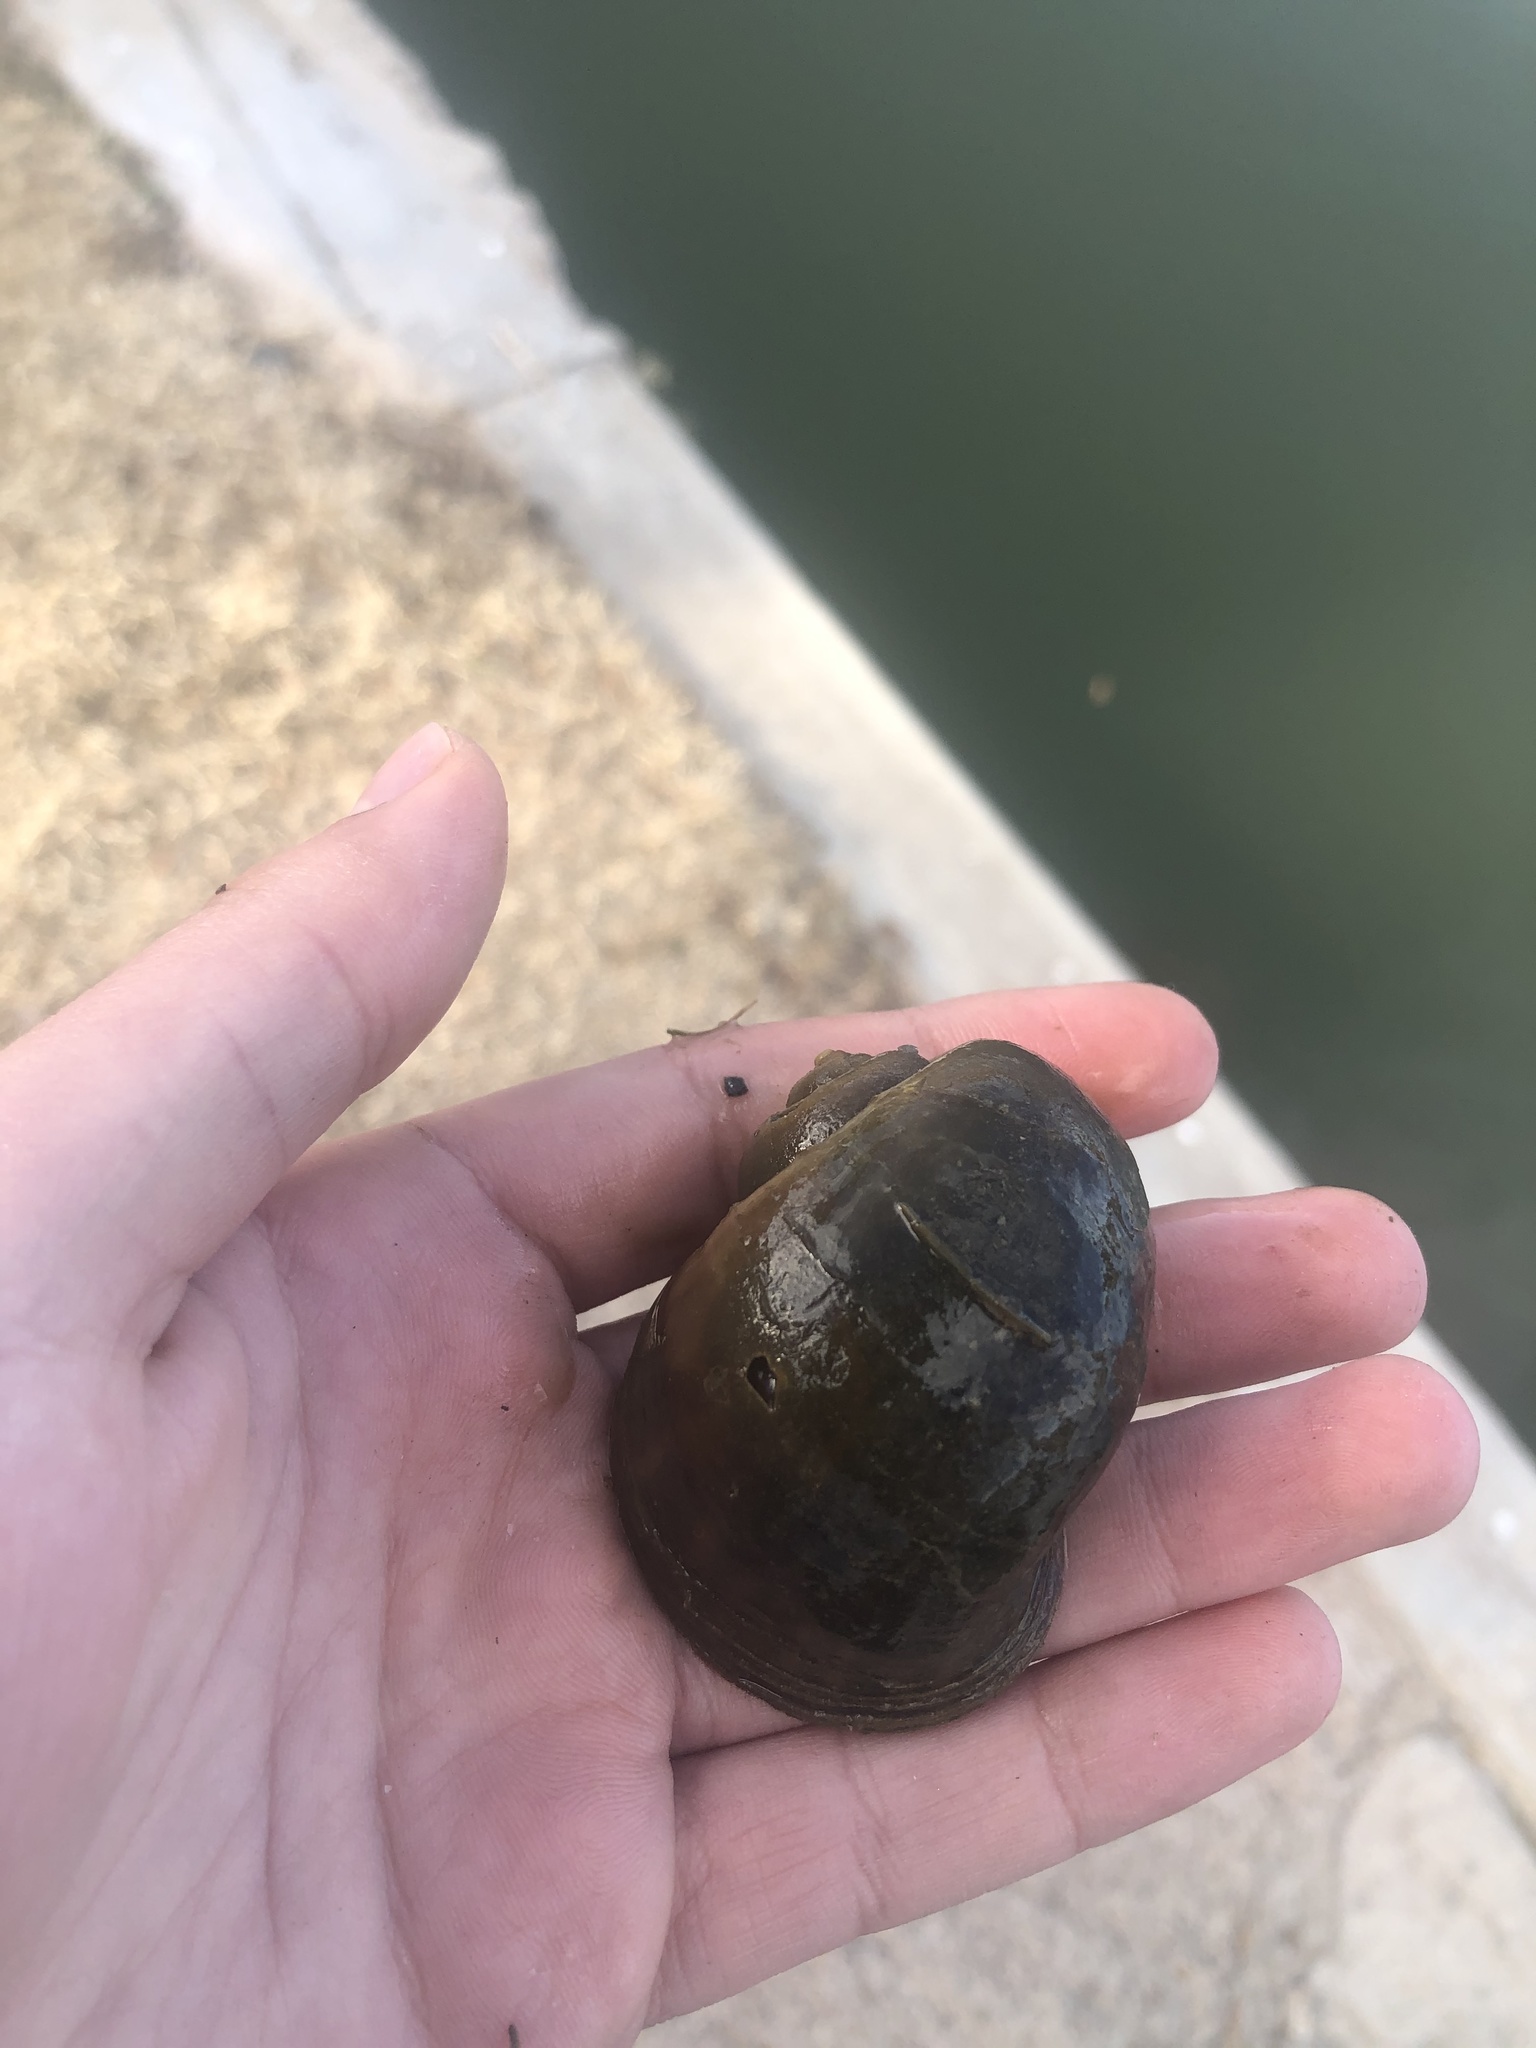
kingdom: Animalia
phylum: Mollusca
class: Gastropoda
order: Architaenioglossa
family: Ampullariidae
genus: Pomacea
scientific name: Pomacea canaliculata
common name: Channeled applesnail
